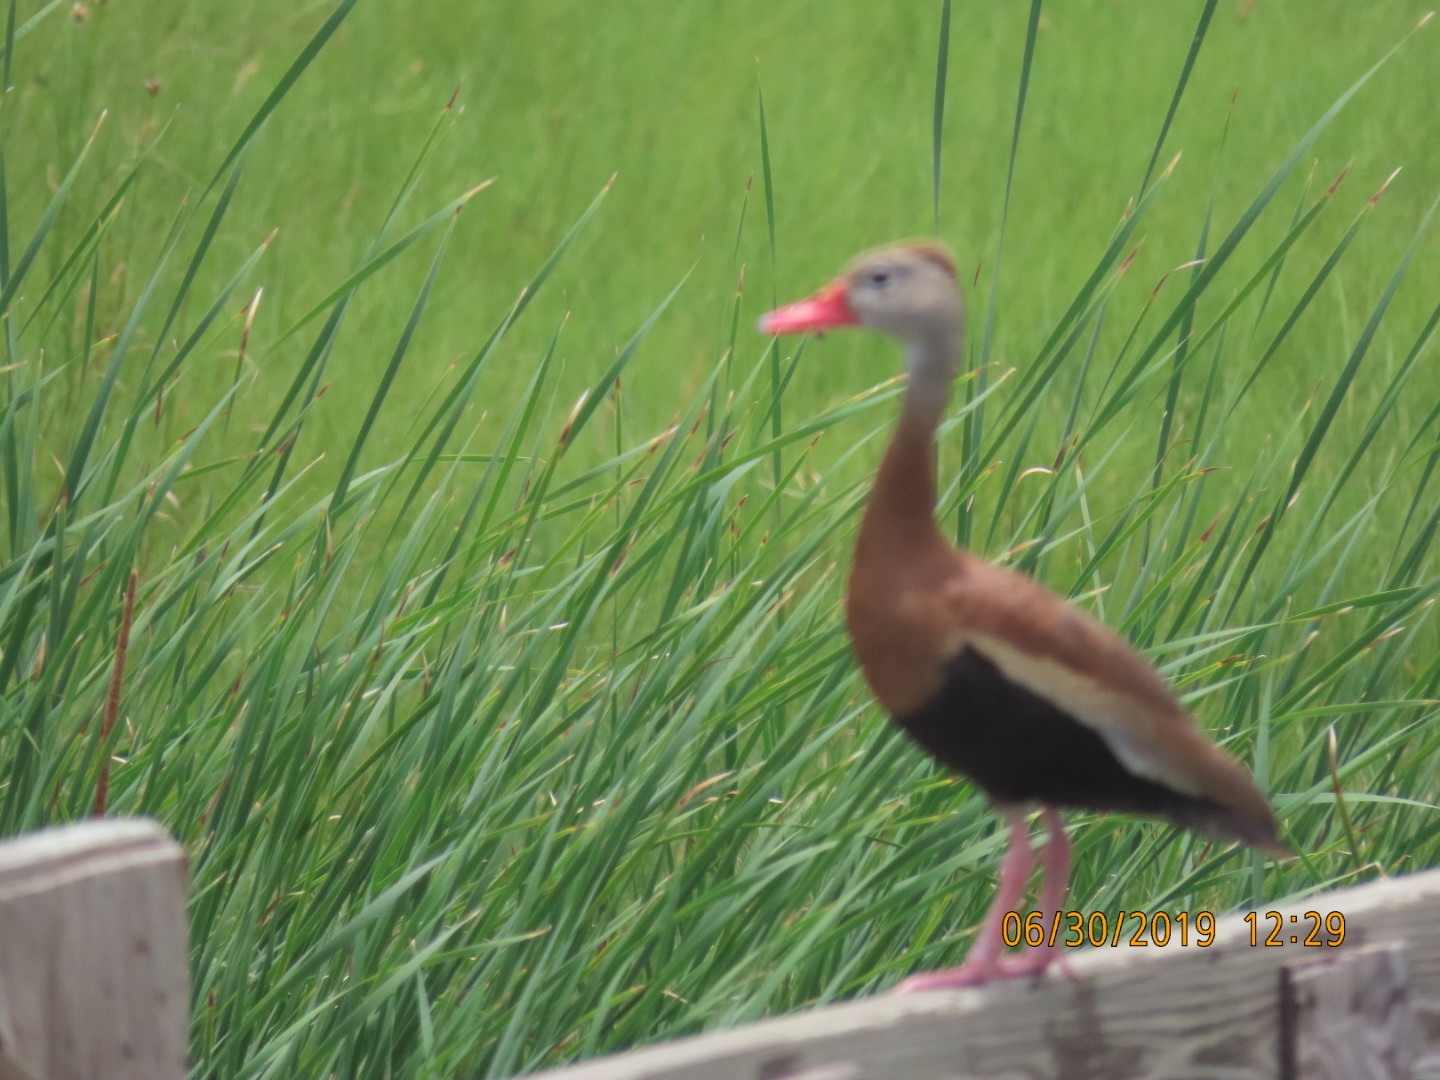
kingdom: Animalia
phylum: Chordata
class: Aves
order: Anseriformes
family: Anatidae
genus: Dendrocygna
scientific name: Dendrocygna autumnalis
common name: Black-bellied whistling duck
